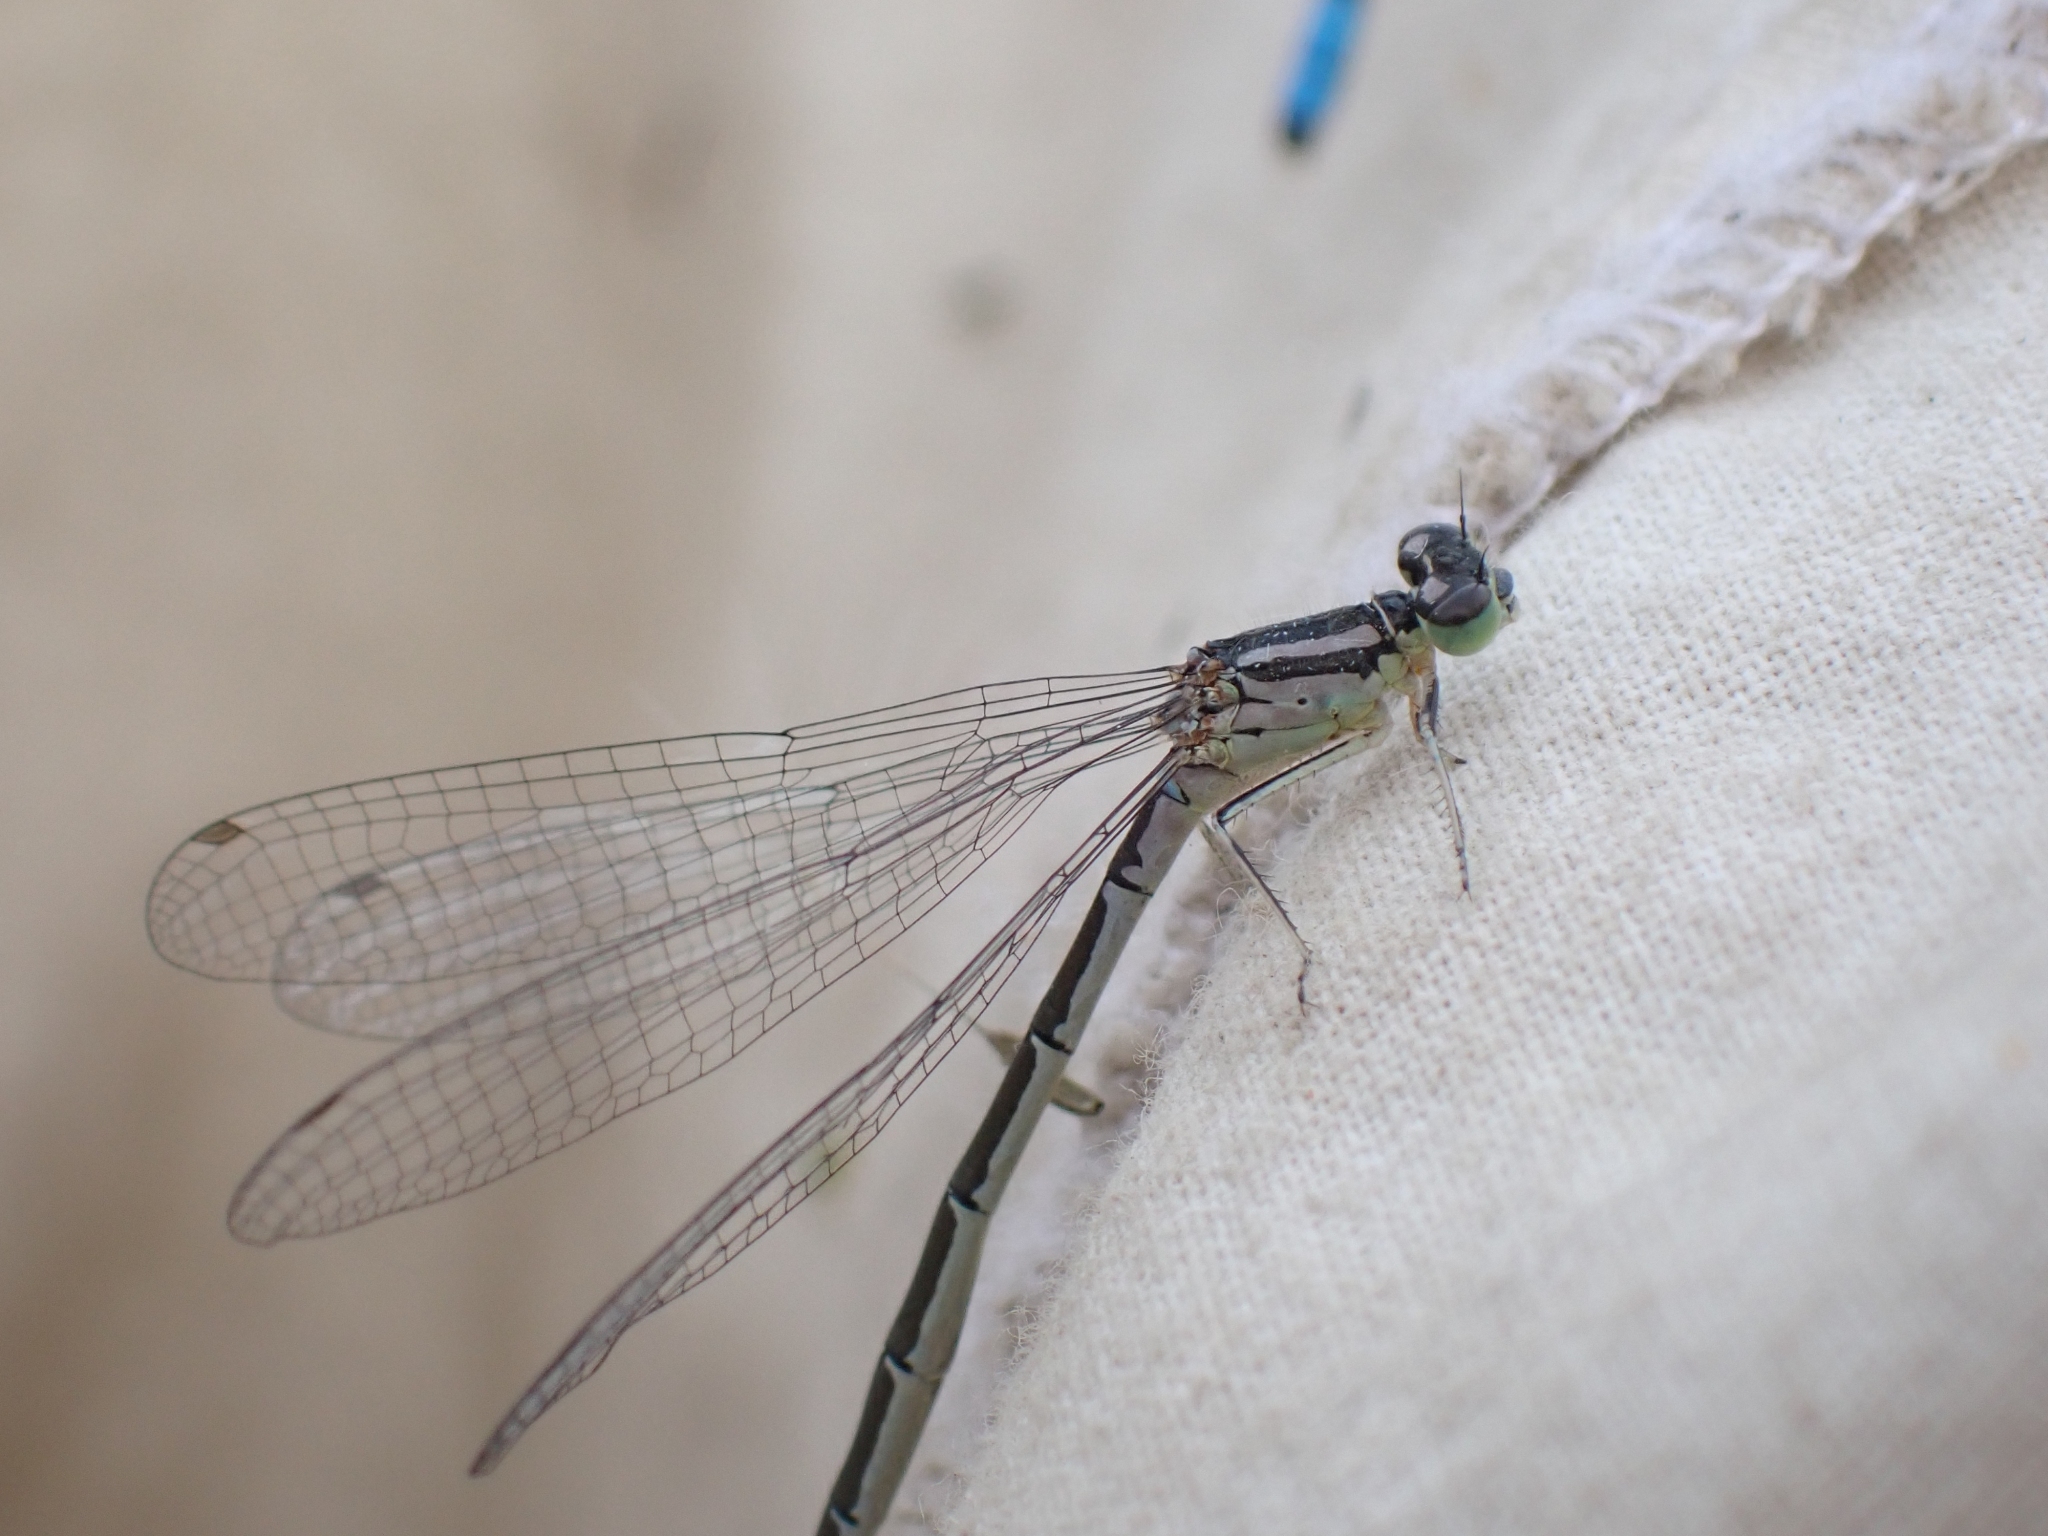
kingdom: Animalia
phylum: Arthropoda
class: Insecta
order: Odonata
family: Coenagrionidae
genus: Coenagrion
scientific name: Coenagrion resolutum
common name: Taiga bluet
